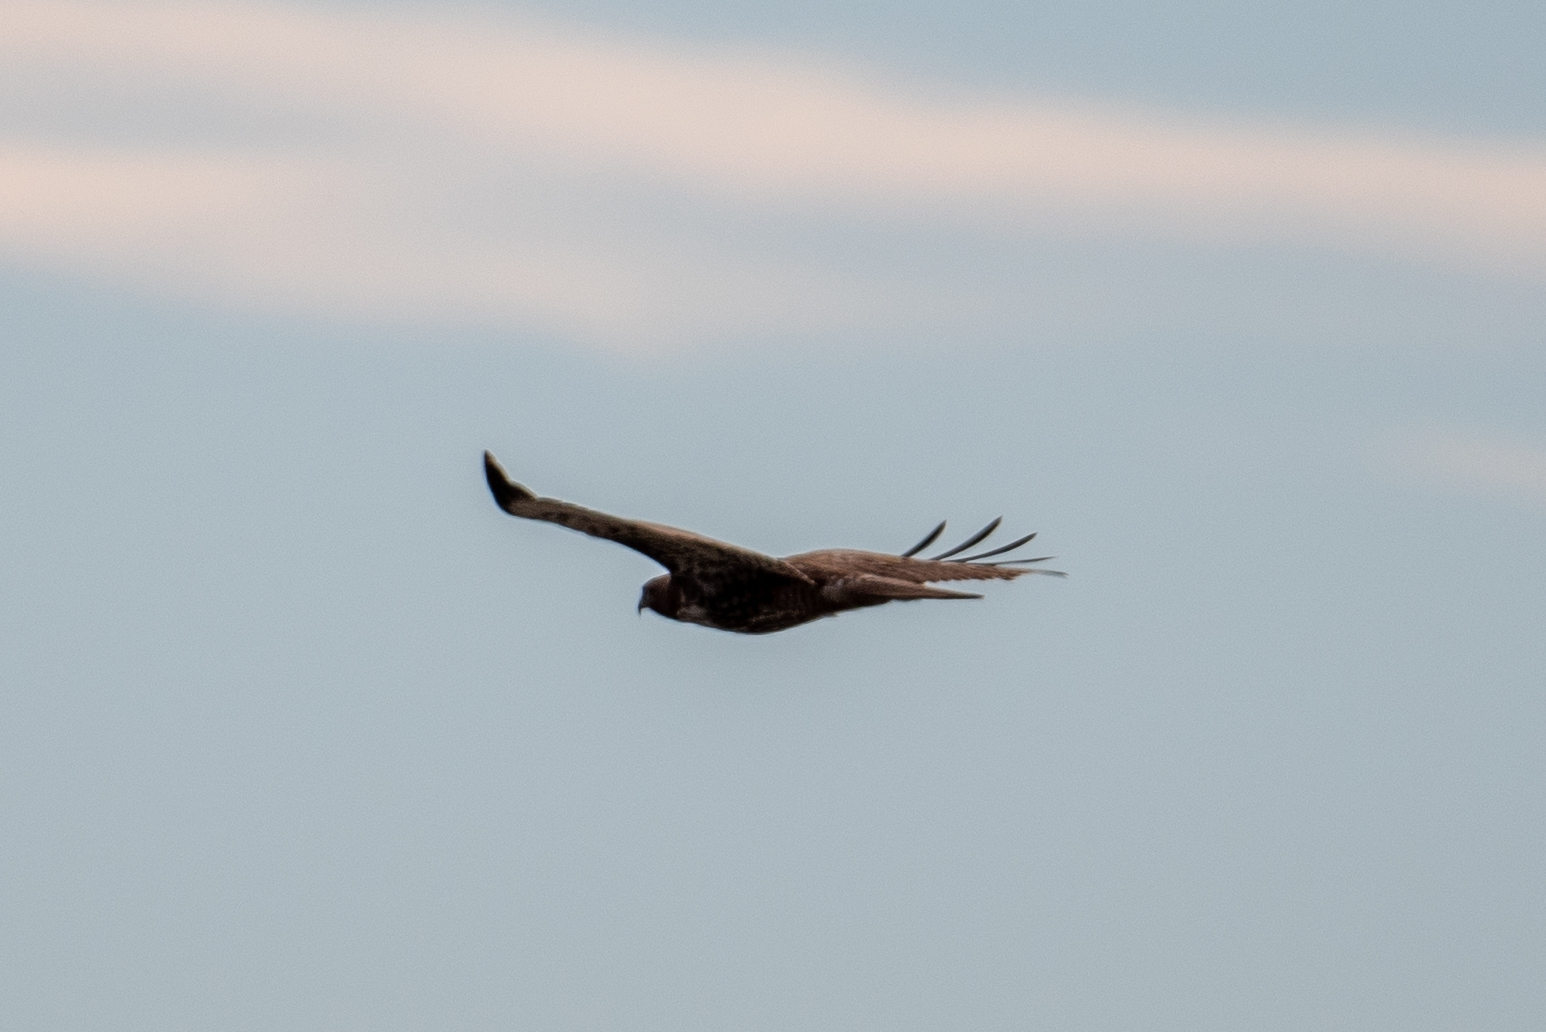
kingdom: Animalia
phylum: Chordata
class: Aves
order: Accipitriformes
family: Accipitridae
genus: Buteo
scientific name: Buteo jamaicensis
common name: Red-tailed hawk
